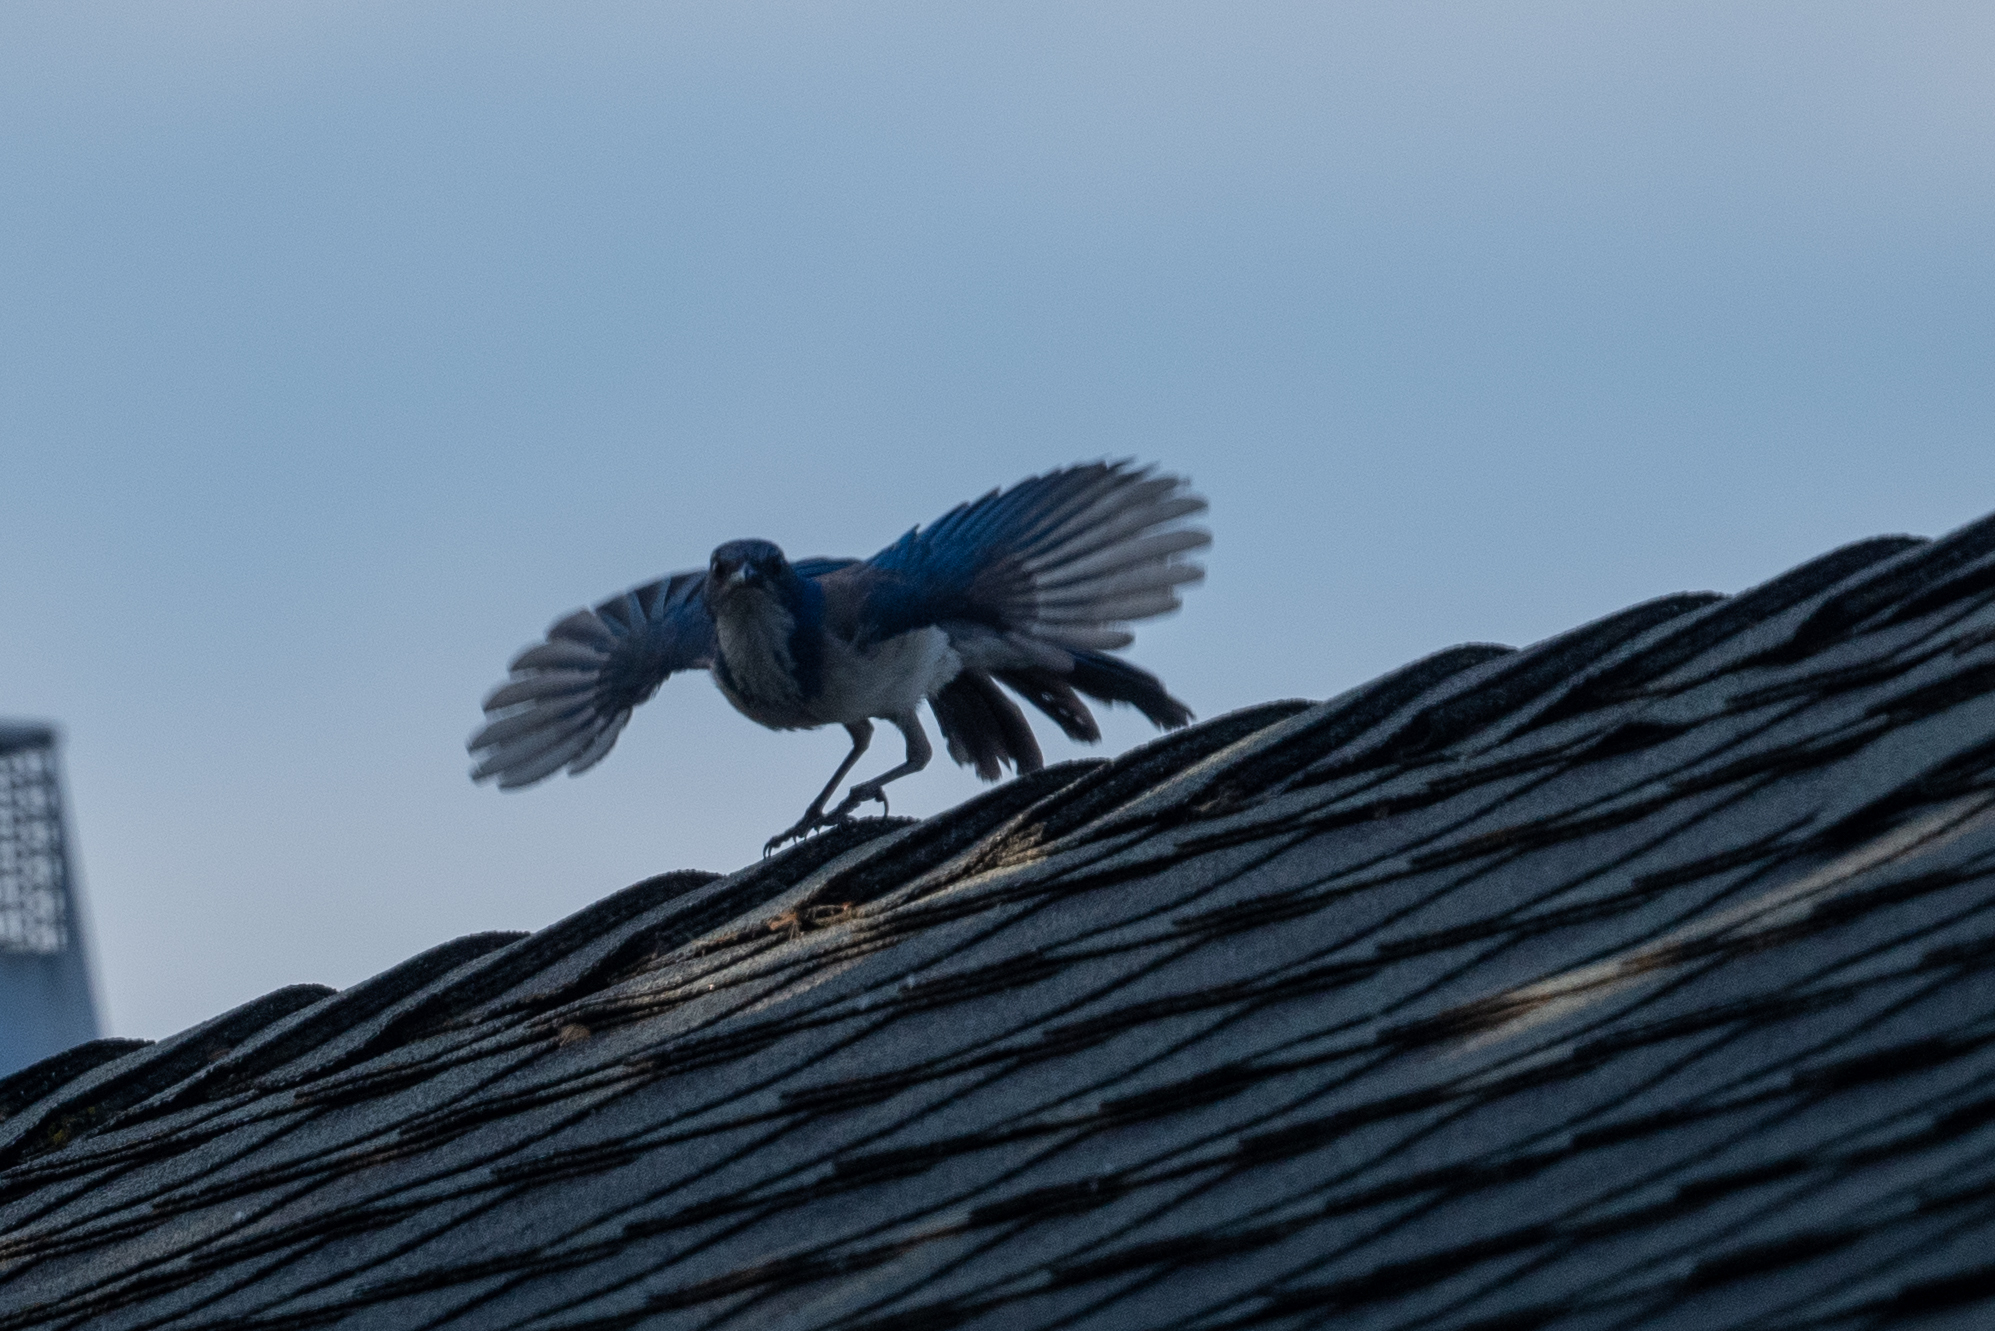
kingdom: Animalia
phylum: Chordata
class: Aves
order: Passeriformes
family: Corvidae
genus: Aphelocoma
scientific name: Aphelocoma californica
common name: California scrub-jay
